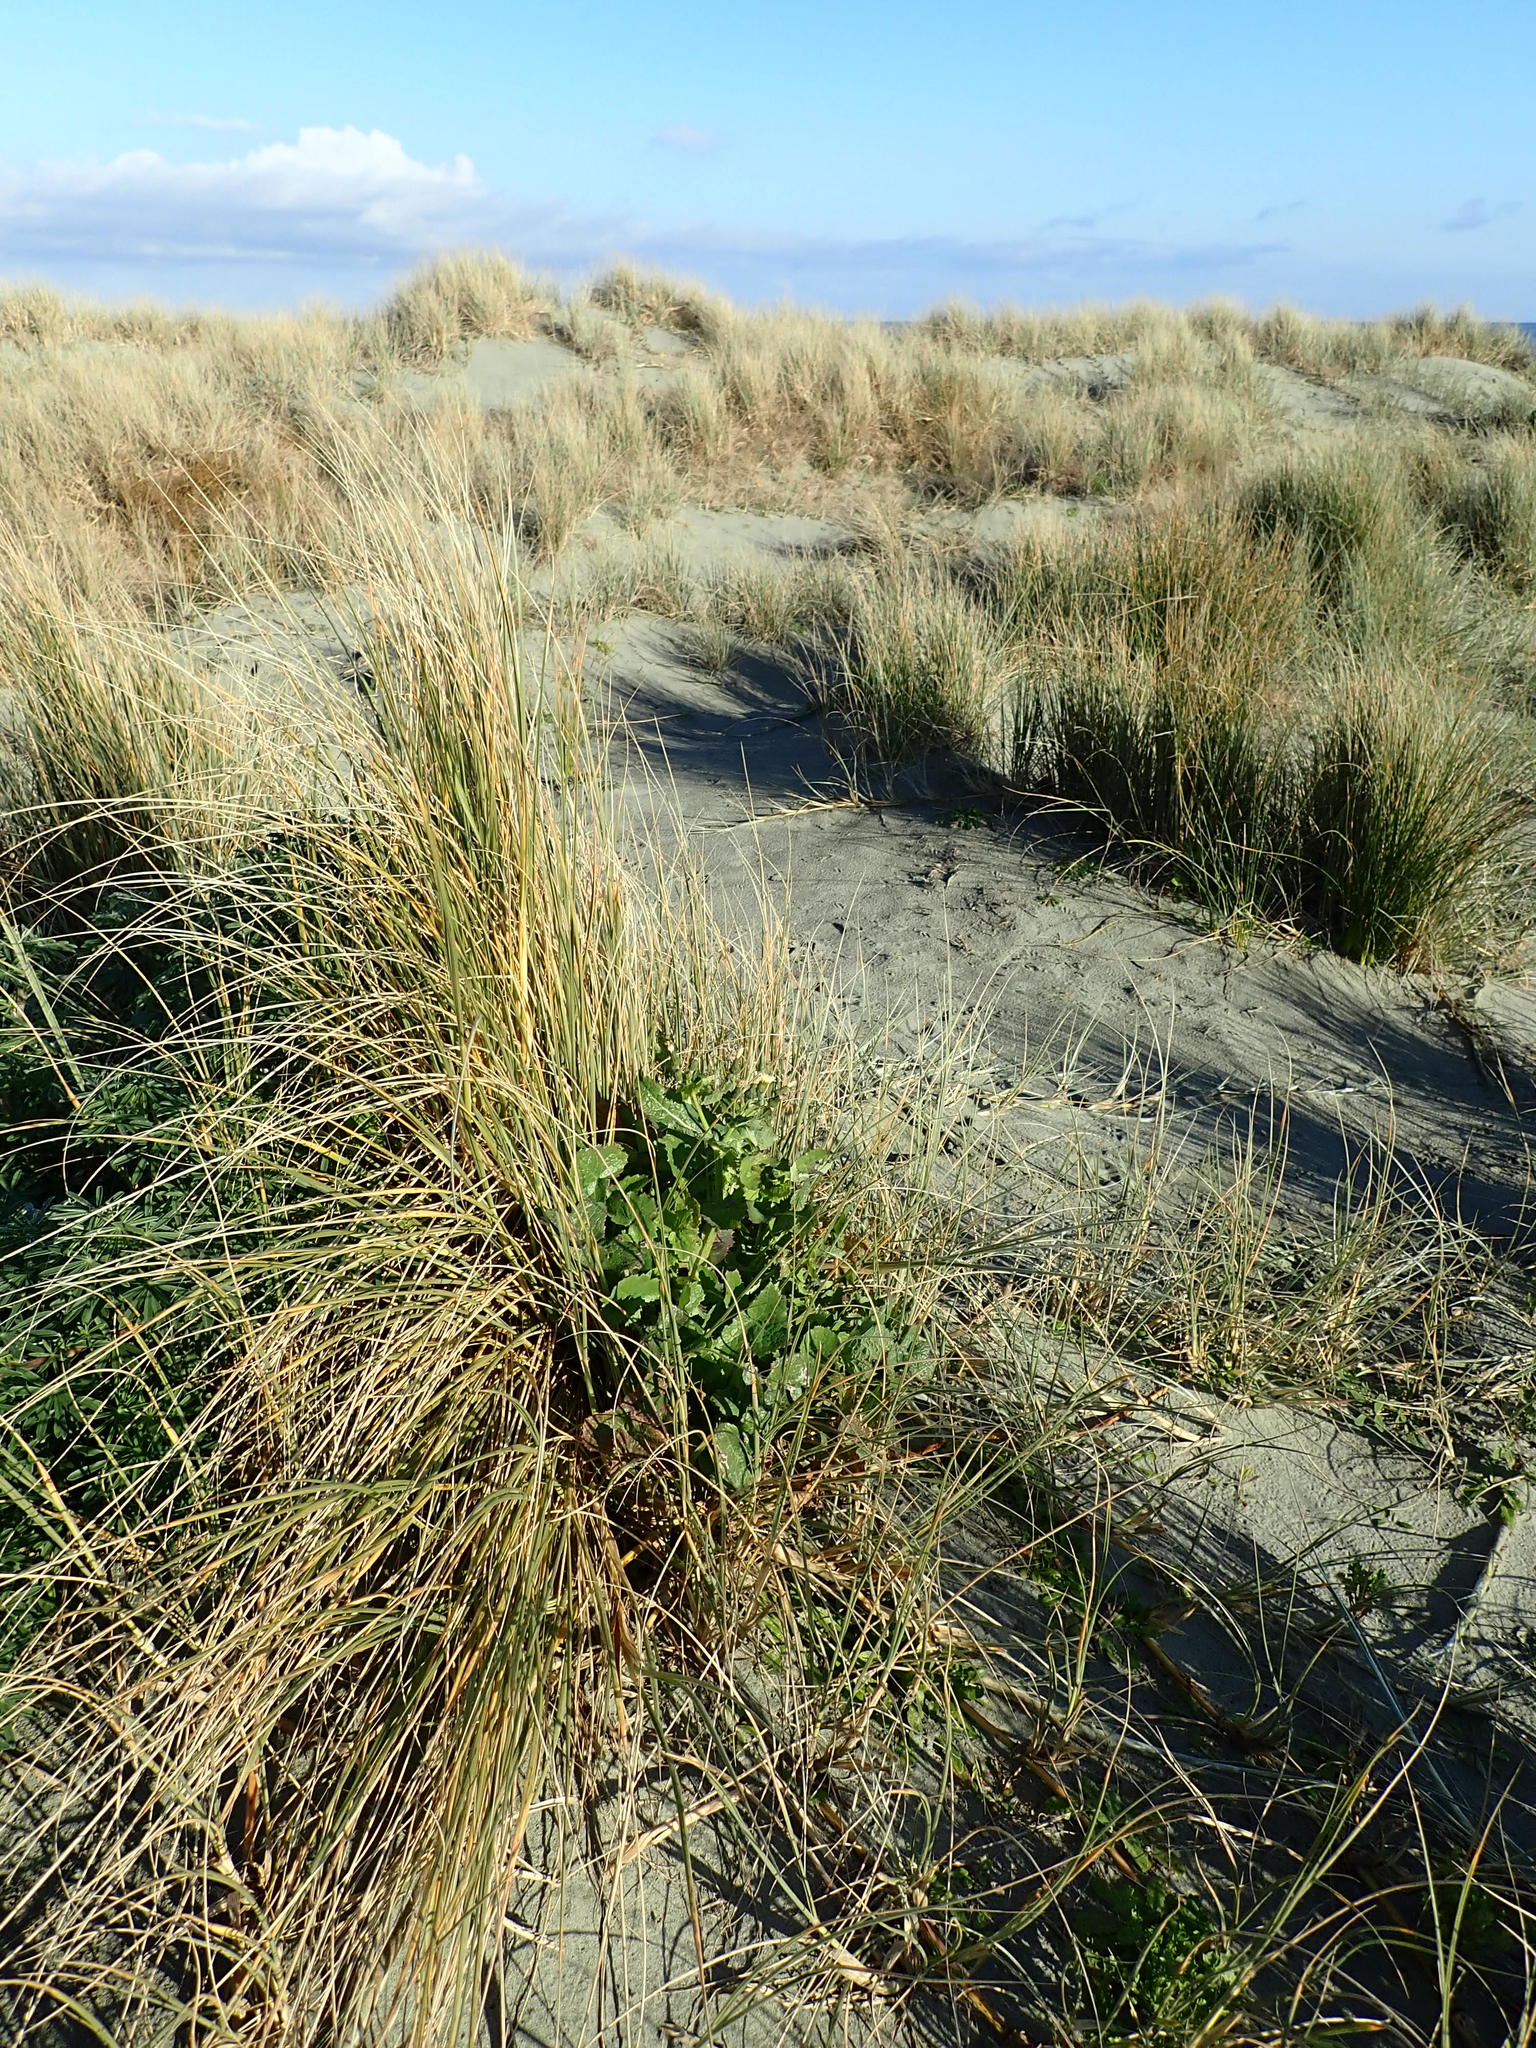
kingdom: Plantae
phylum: Tracheophyta
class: Magnoliopsida
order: Asterales
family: Asteraceae
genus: Sonchus
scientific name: Sonchus oleraceus
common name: Common sowthistle
